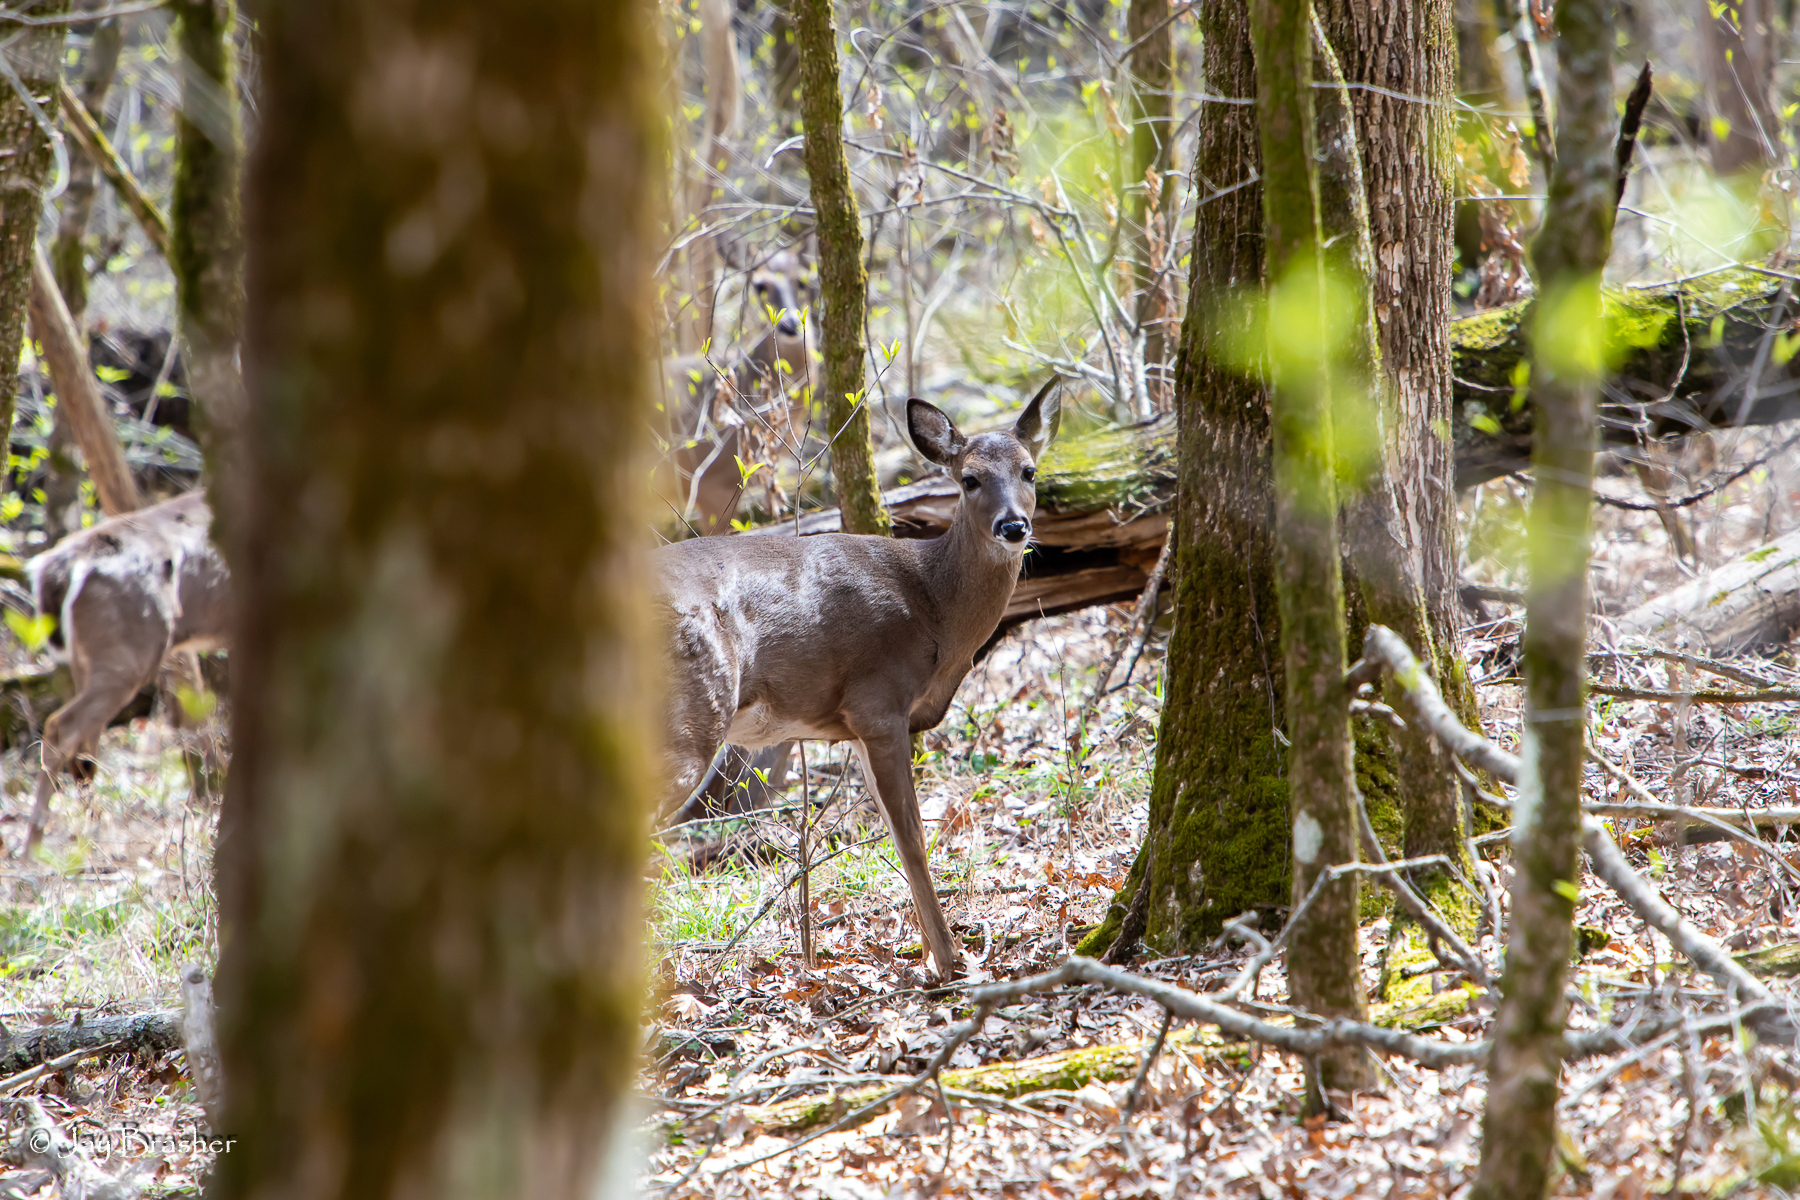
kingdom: Animalia
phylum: Chordata
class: Mammalia
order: Artiodactyla
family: Cervidae
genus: Odocoileus
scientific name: Odocoileus virginianus
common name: White-tailed deer
